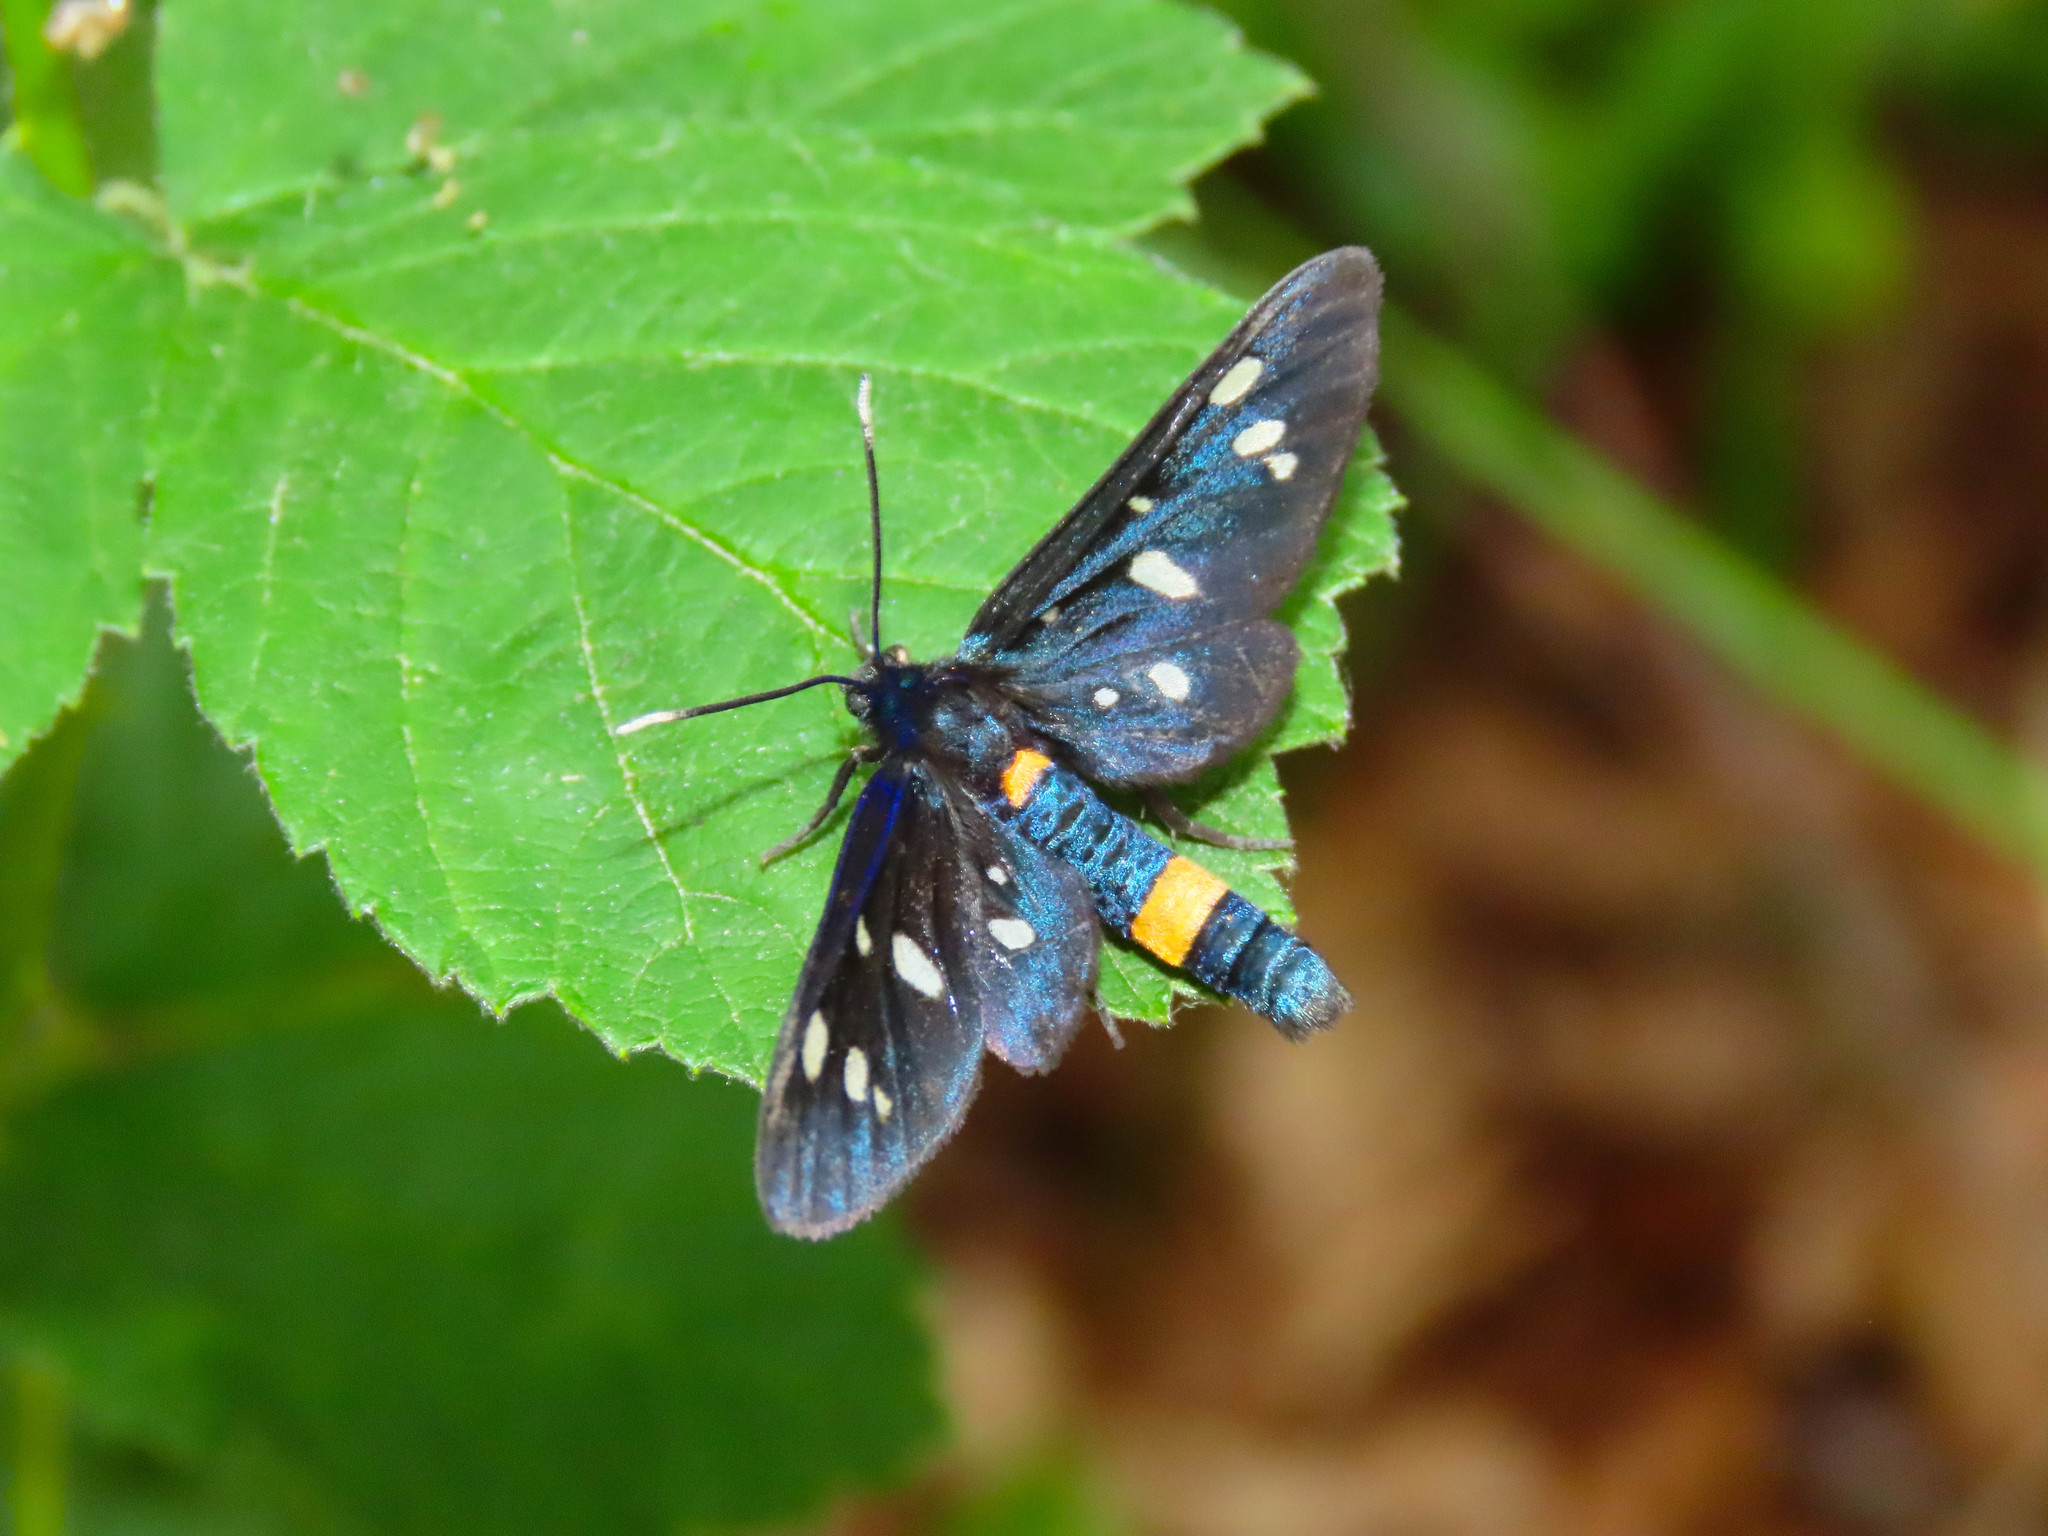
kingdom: Animalia
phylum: Arthropoda
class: Insecta
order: Lepidoptera
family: Erebidae
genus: Amata
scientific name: Amata phegea
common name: Nine-spotted
